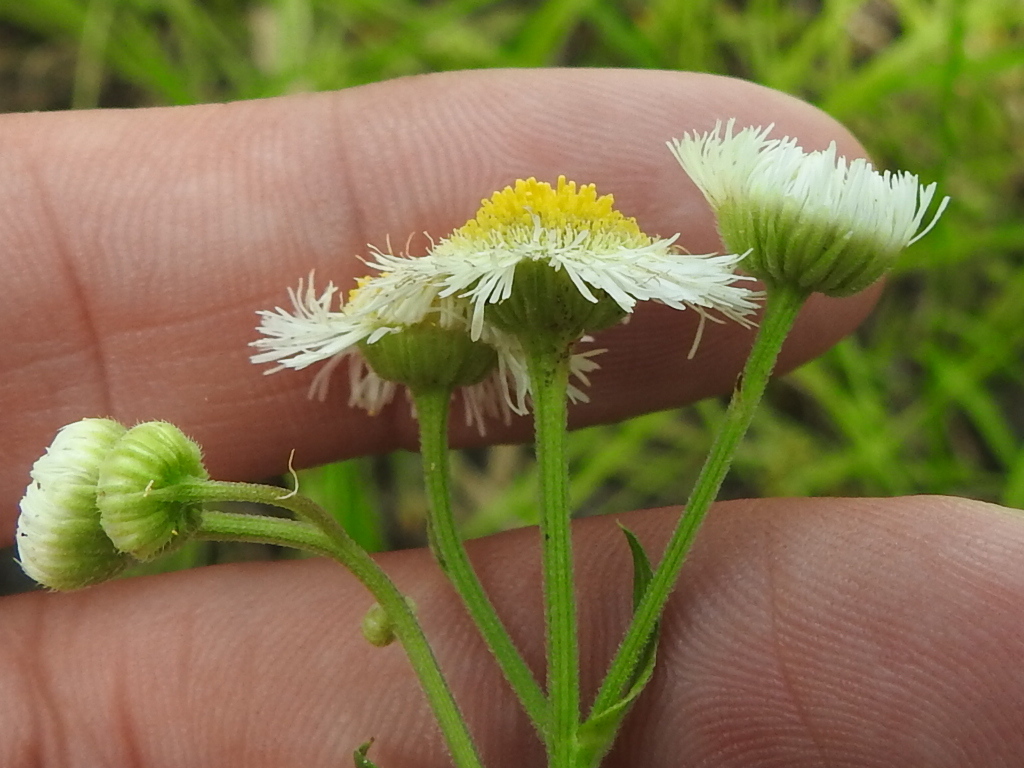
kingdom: Plantae
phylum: Tracheophyta
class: Magnoliopsida
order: Asterales
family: Asteraceae
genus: Erigeron
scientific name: Erigeron strigosus
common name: Common eastern fleabane
